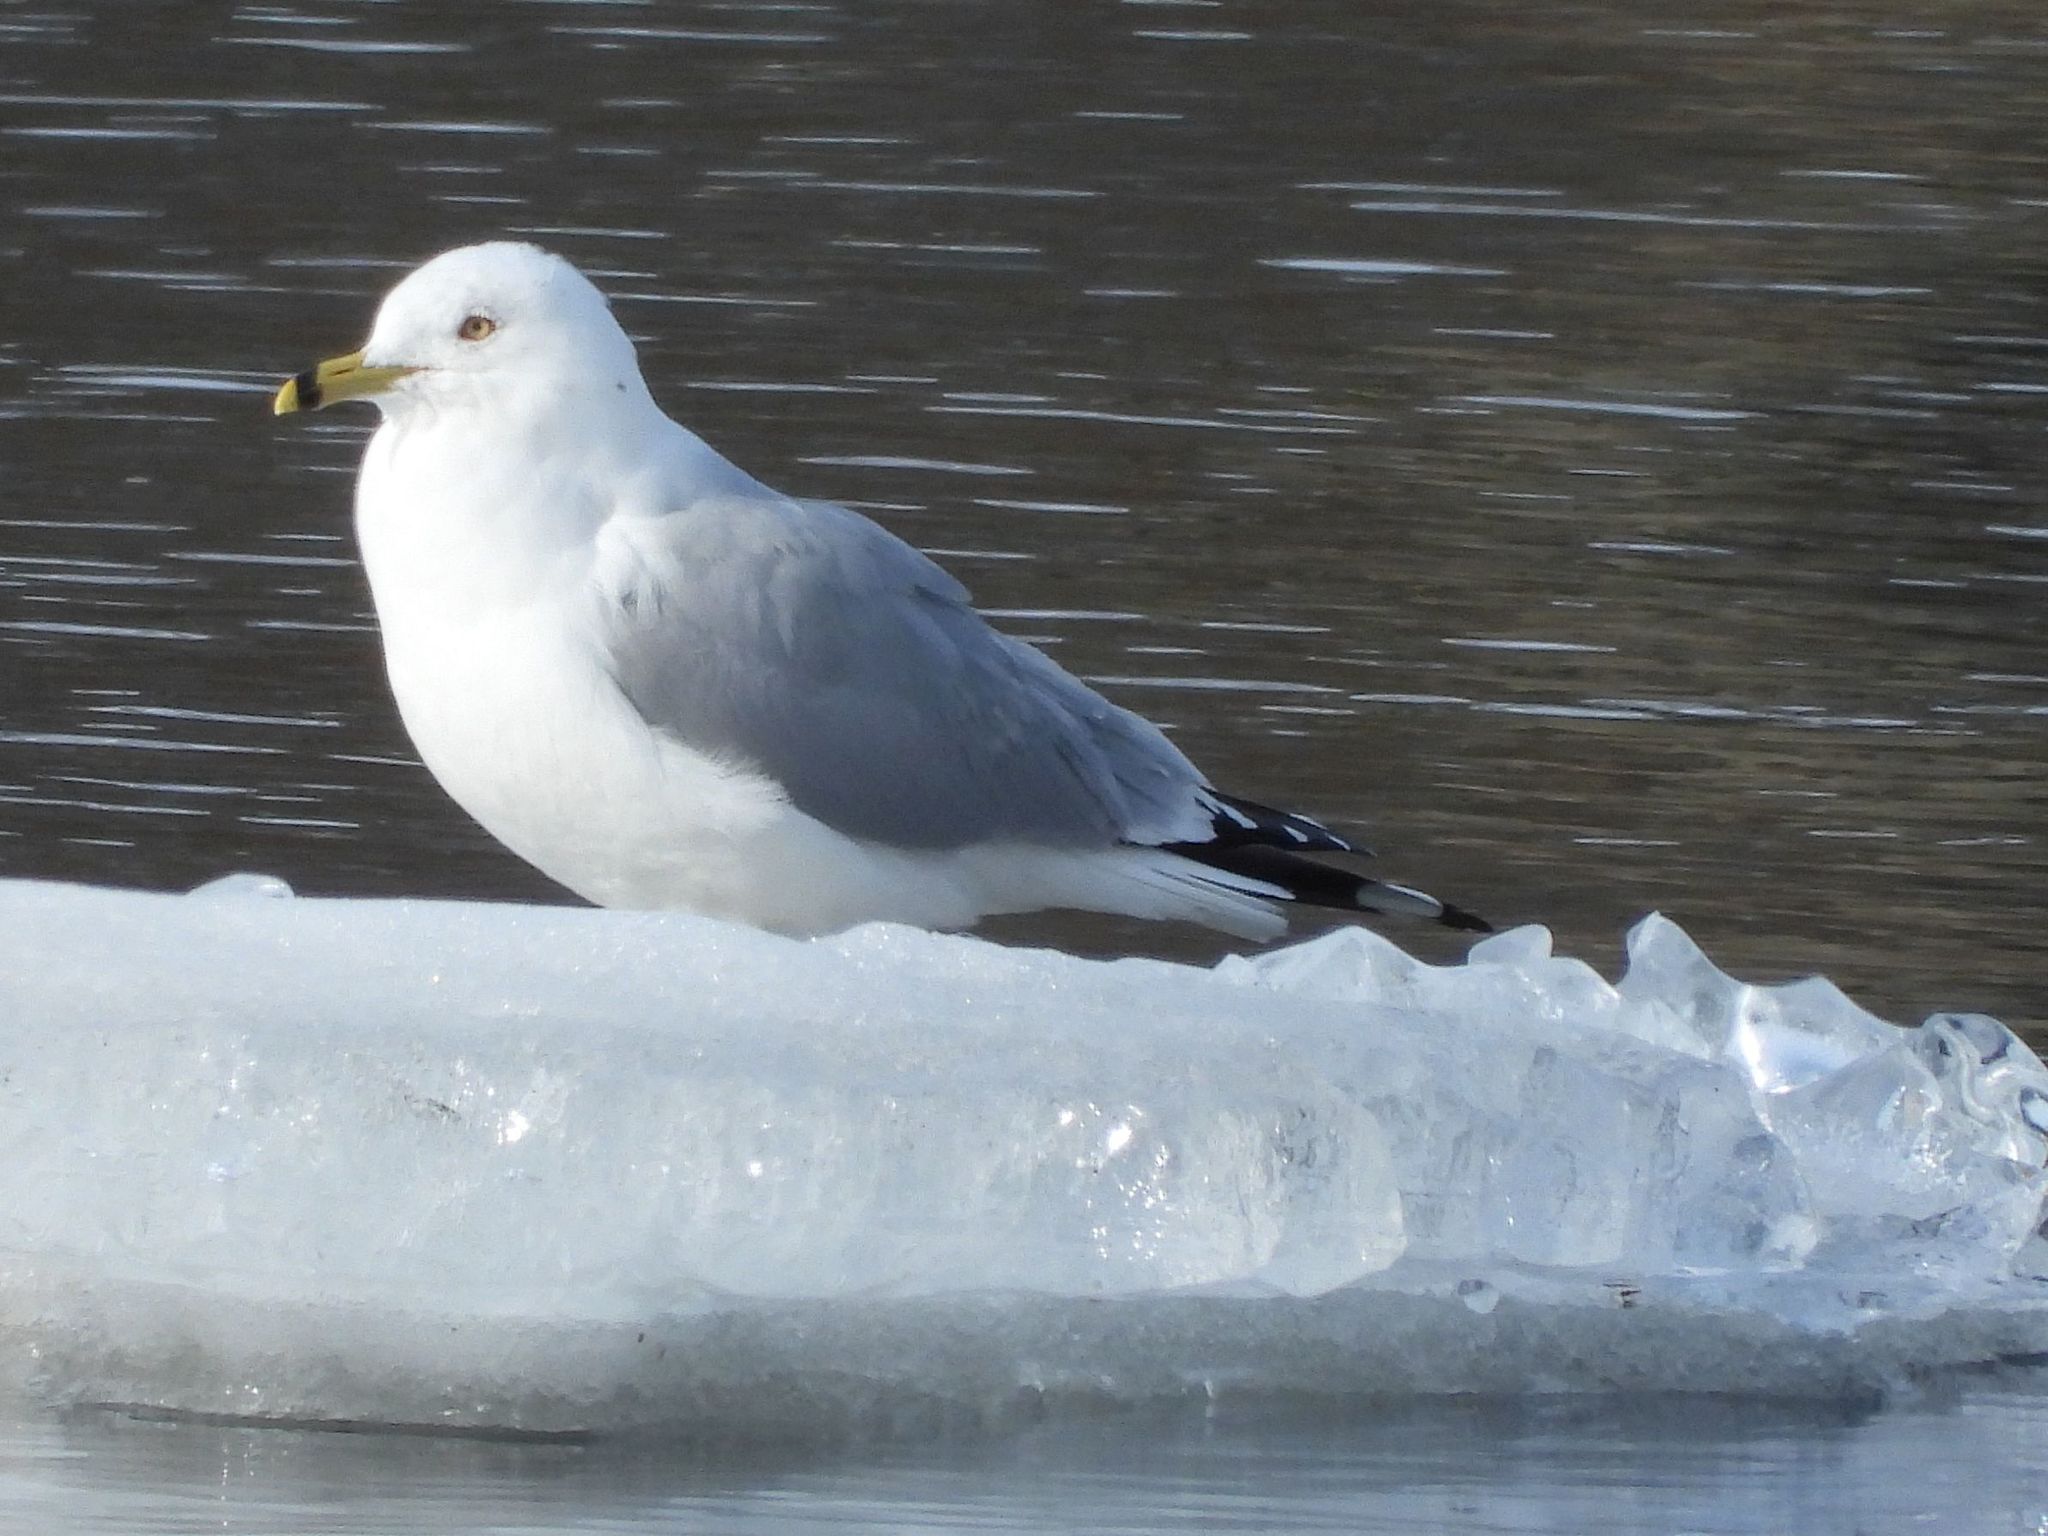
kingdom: Animalia
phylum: Chordata
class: Aves
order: Charadriiformes
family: Laridae
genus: Larus
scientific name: Larus delawarensis
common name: Ring-billed gull
